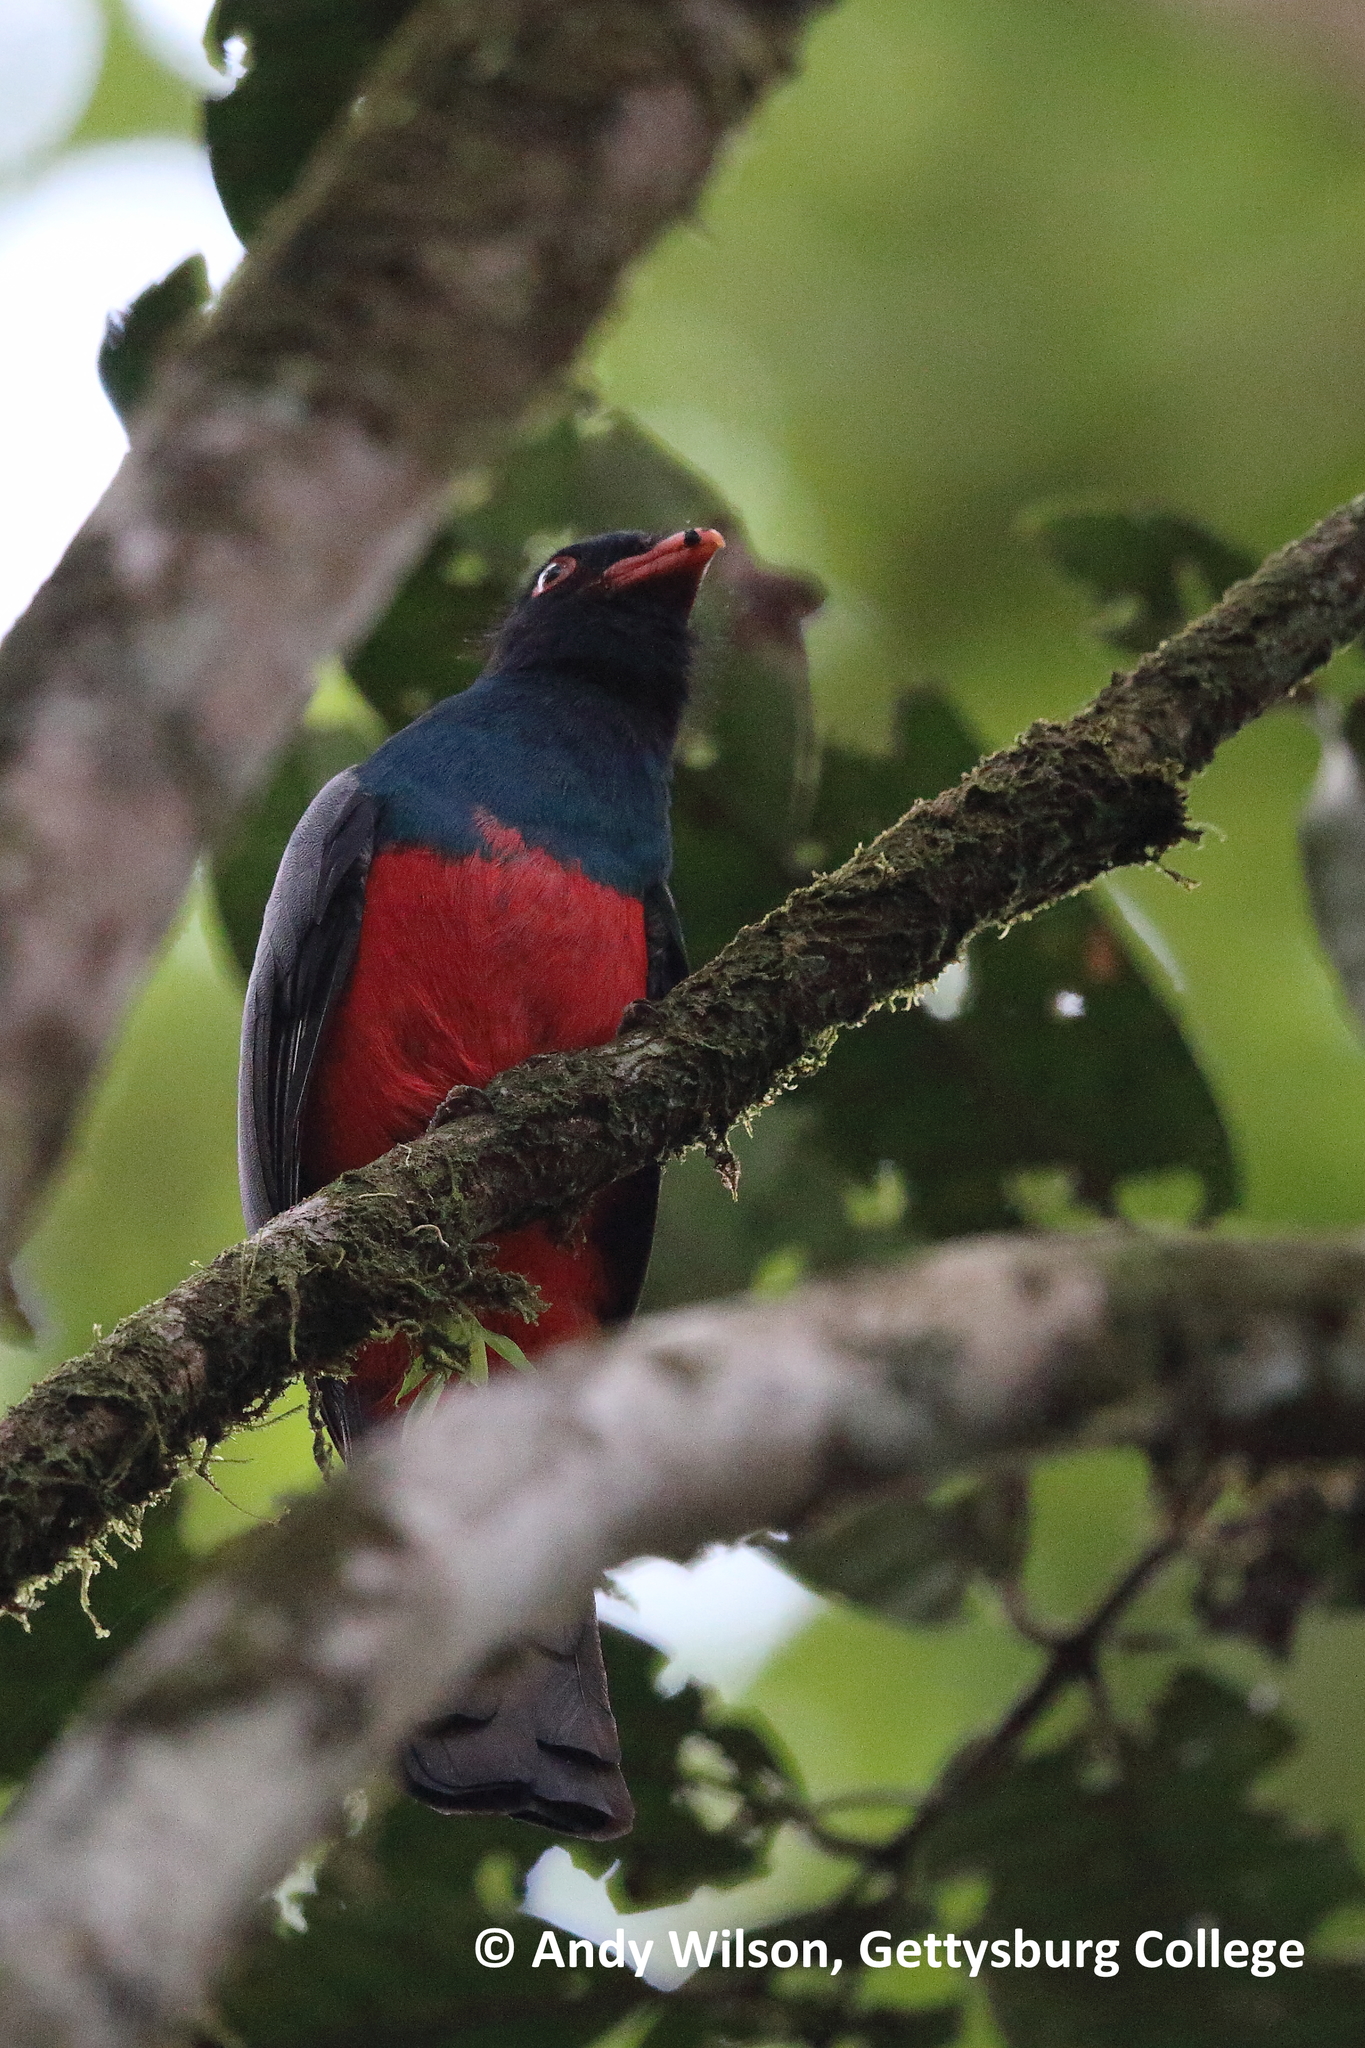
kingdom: Animalia
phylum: Chordata
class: Aves
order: Trogoniformes
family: Trogonidae
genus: Trogon
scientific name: Trogon massena
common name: Slaty-tailed trogon
